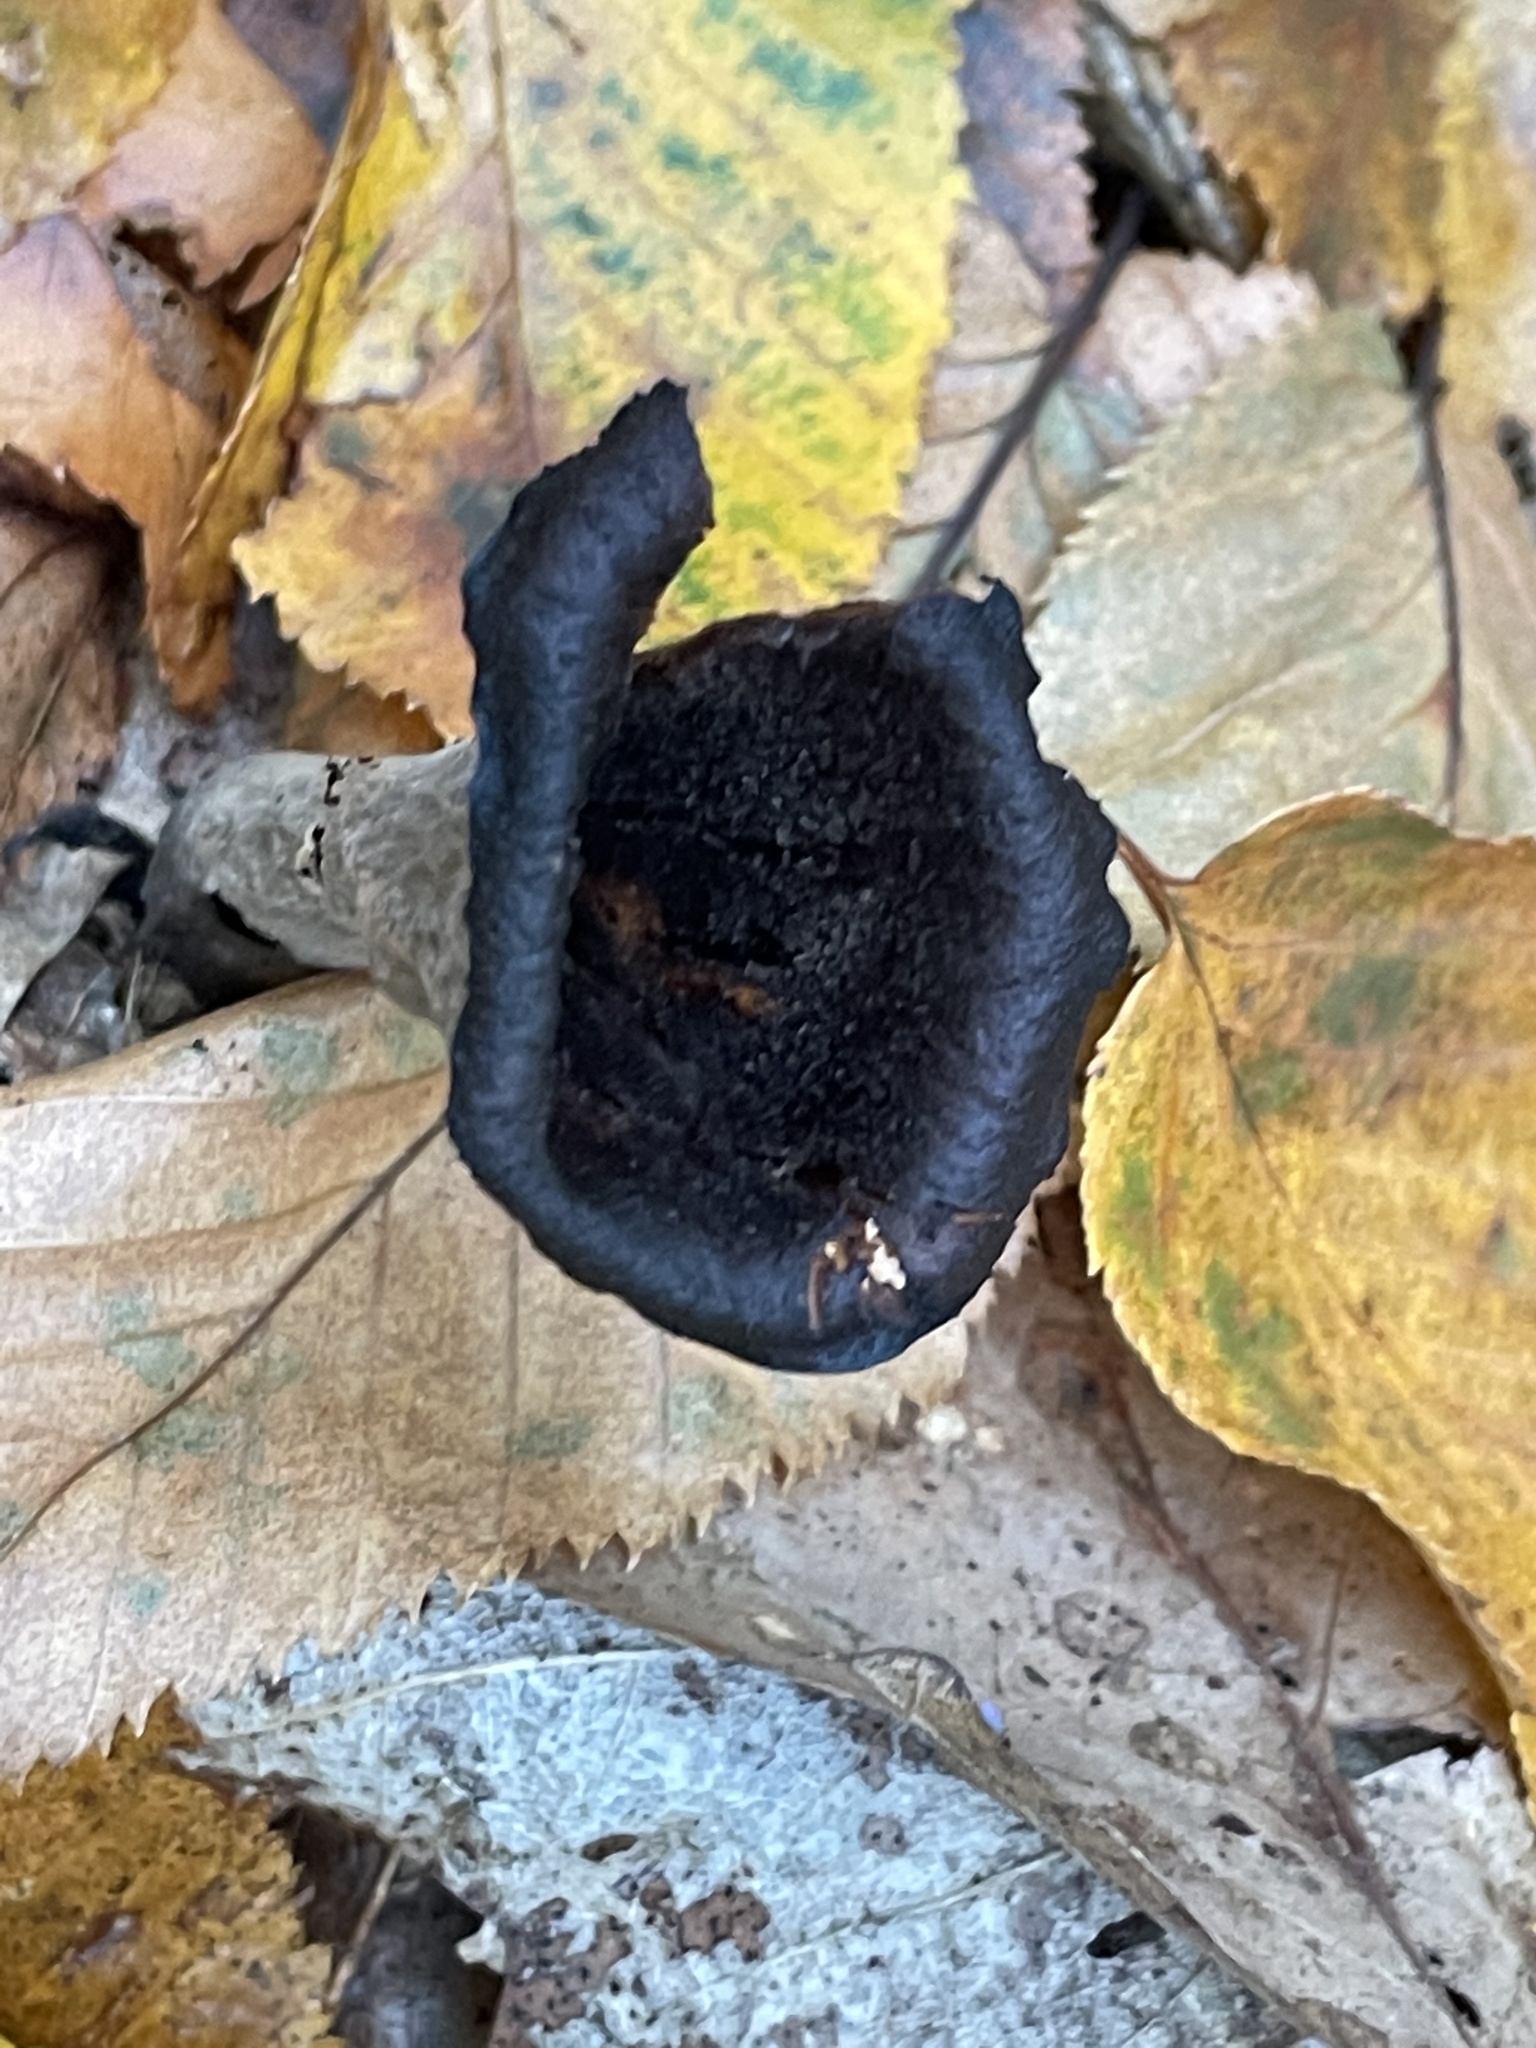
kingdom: Fungi
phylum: Basidiomycota
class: Agaricomycetes
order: Cantharellales
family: Hydnaceae
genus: Craterellus
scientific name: Craterellus cornucopioides
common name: Horn of plenty
